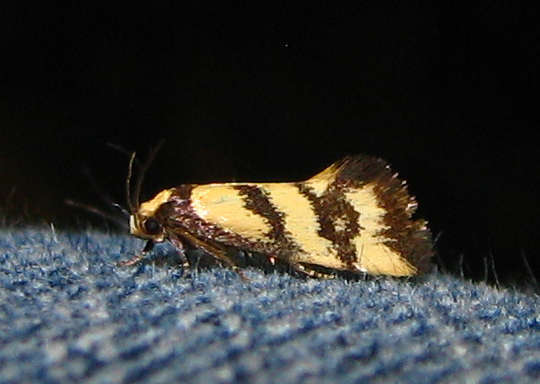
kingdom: Animalia
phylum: Arthropoda
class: Insecta
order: Lepidoptera
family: Oecophoridae
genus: Olbonoma
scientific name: Olbonoma triptycha
